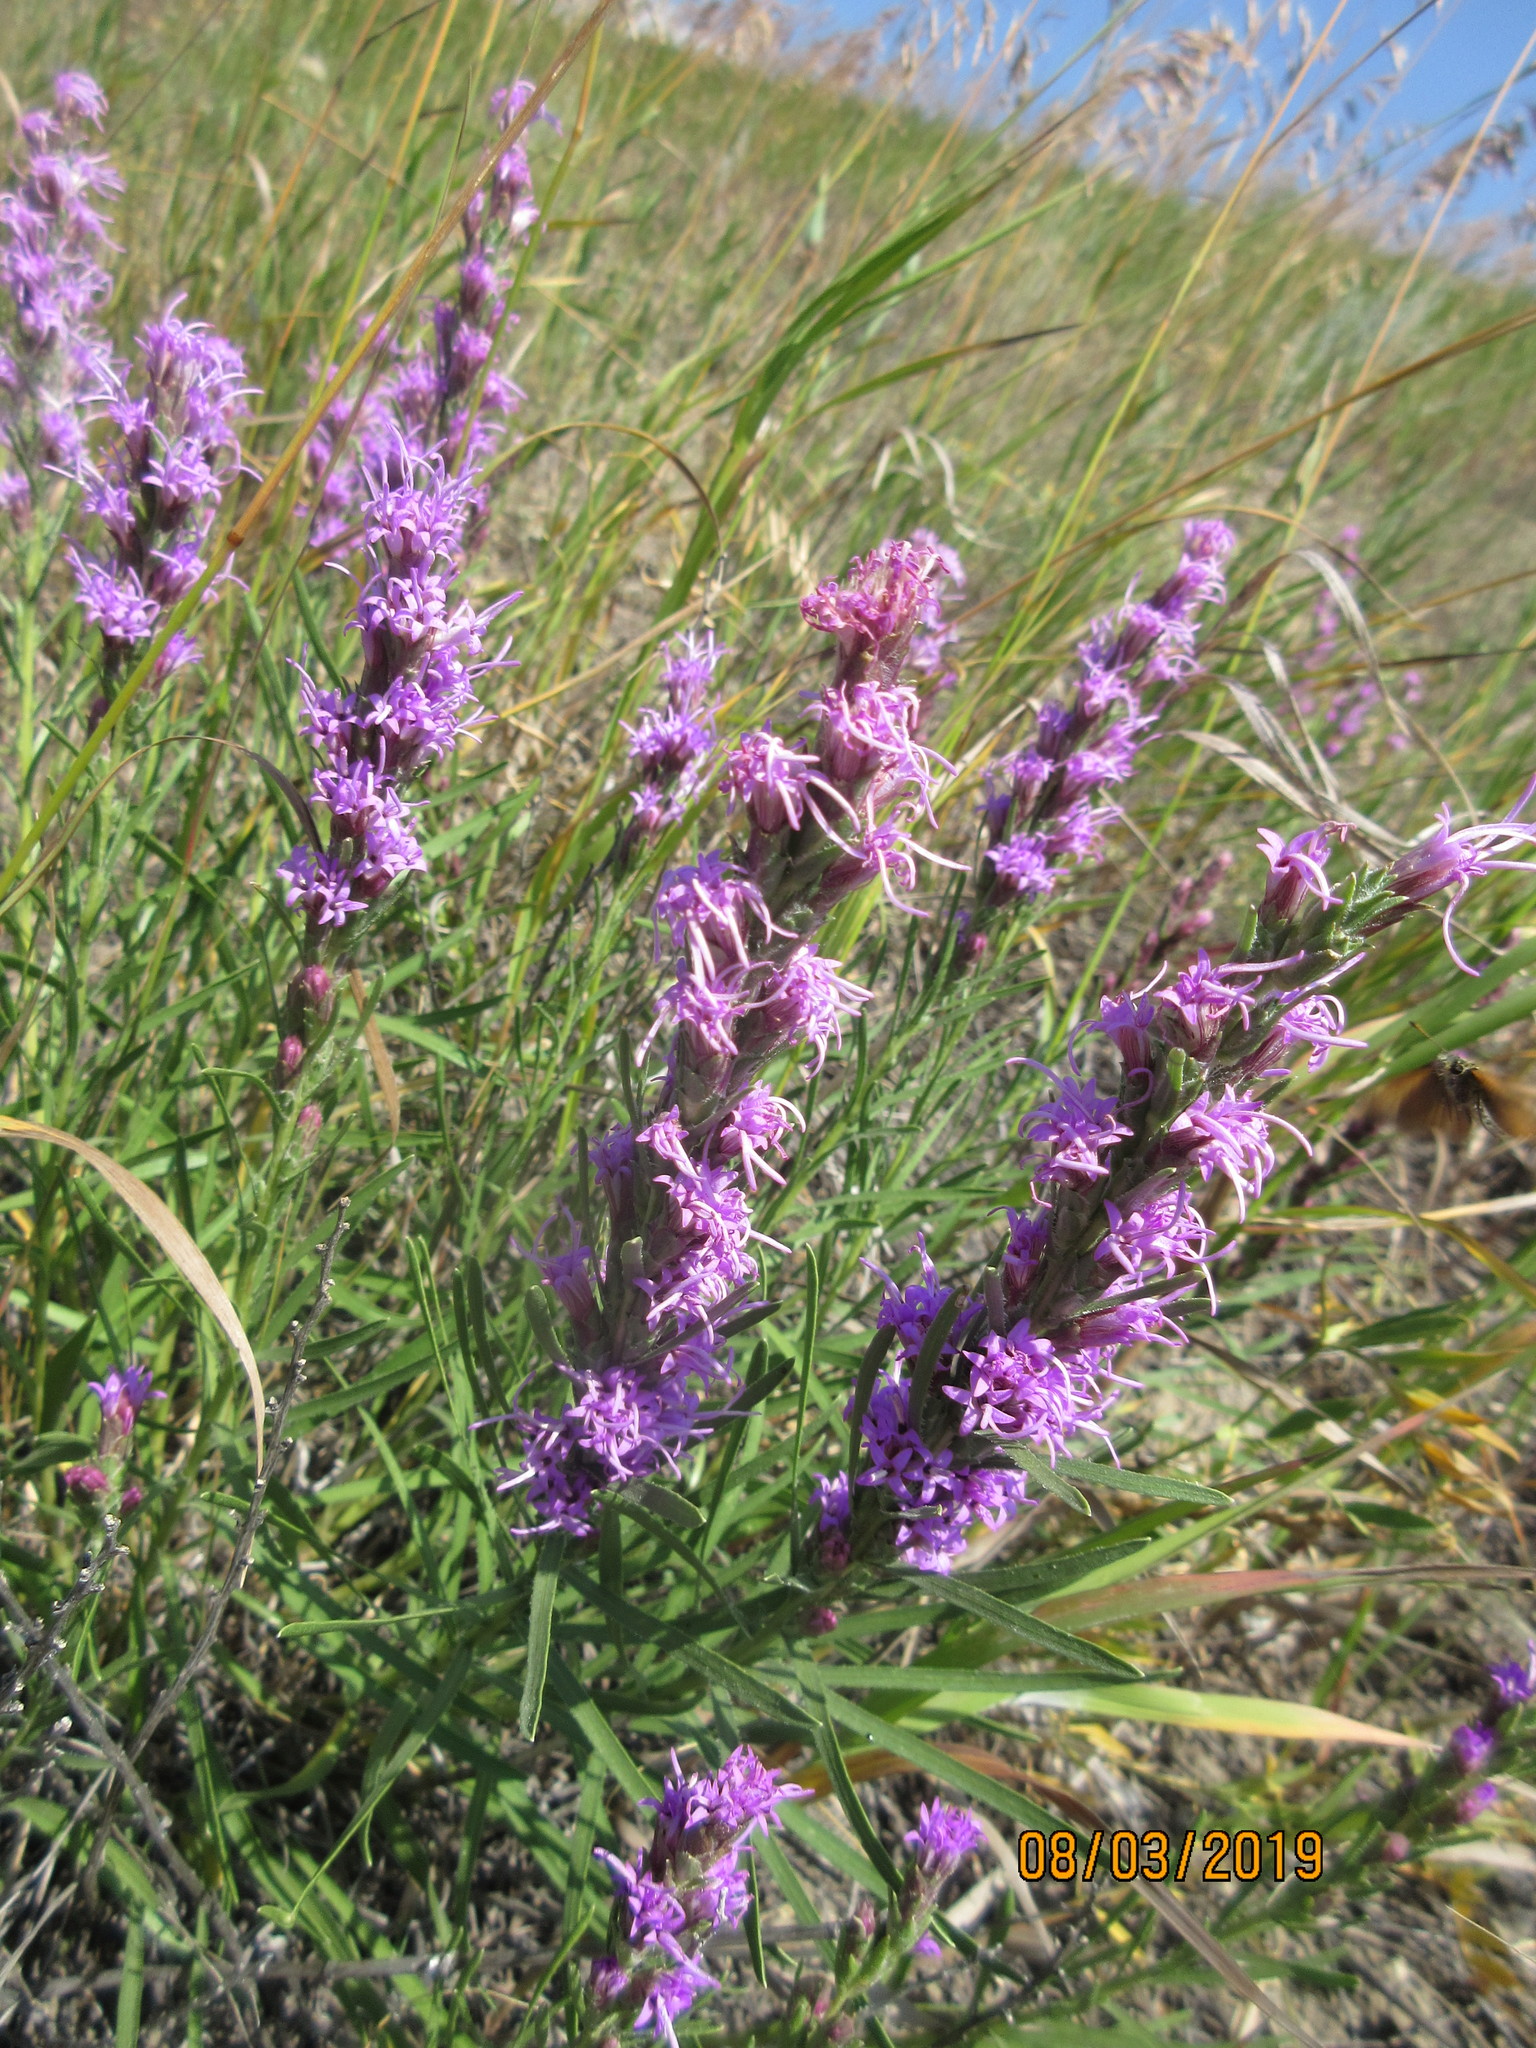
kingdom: Plantae
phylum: Tracheophyta
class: Magnoliopsida
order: Asterales
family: Asteraceae
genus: Liatris
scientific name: Liatris punctata
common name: Dotted gayfeather
